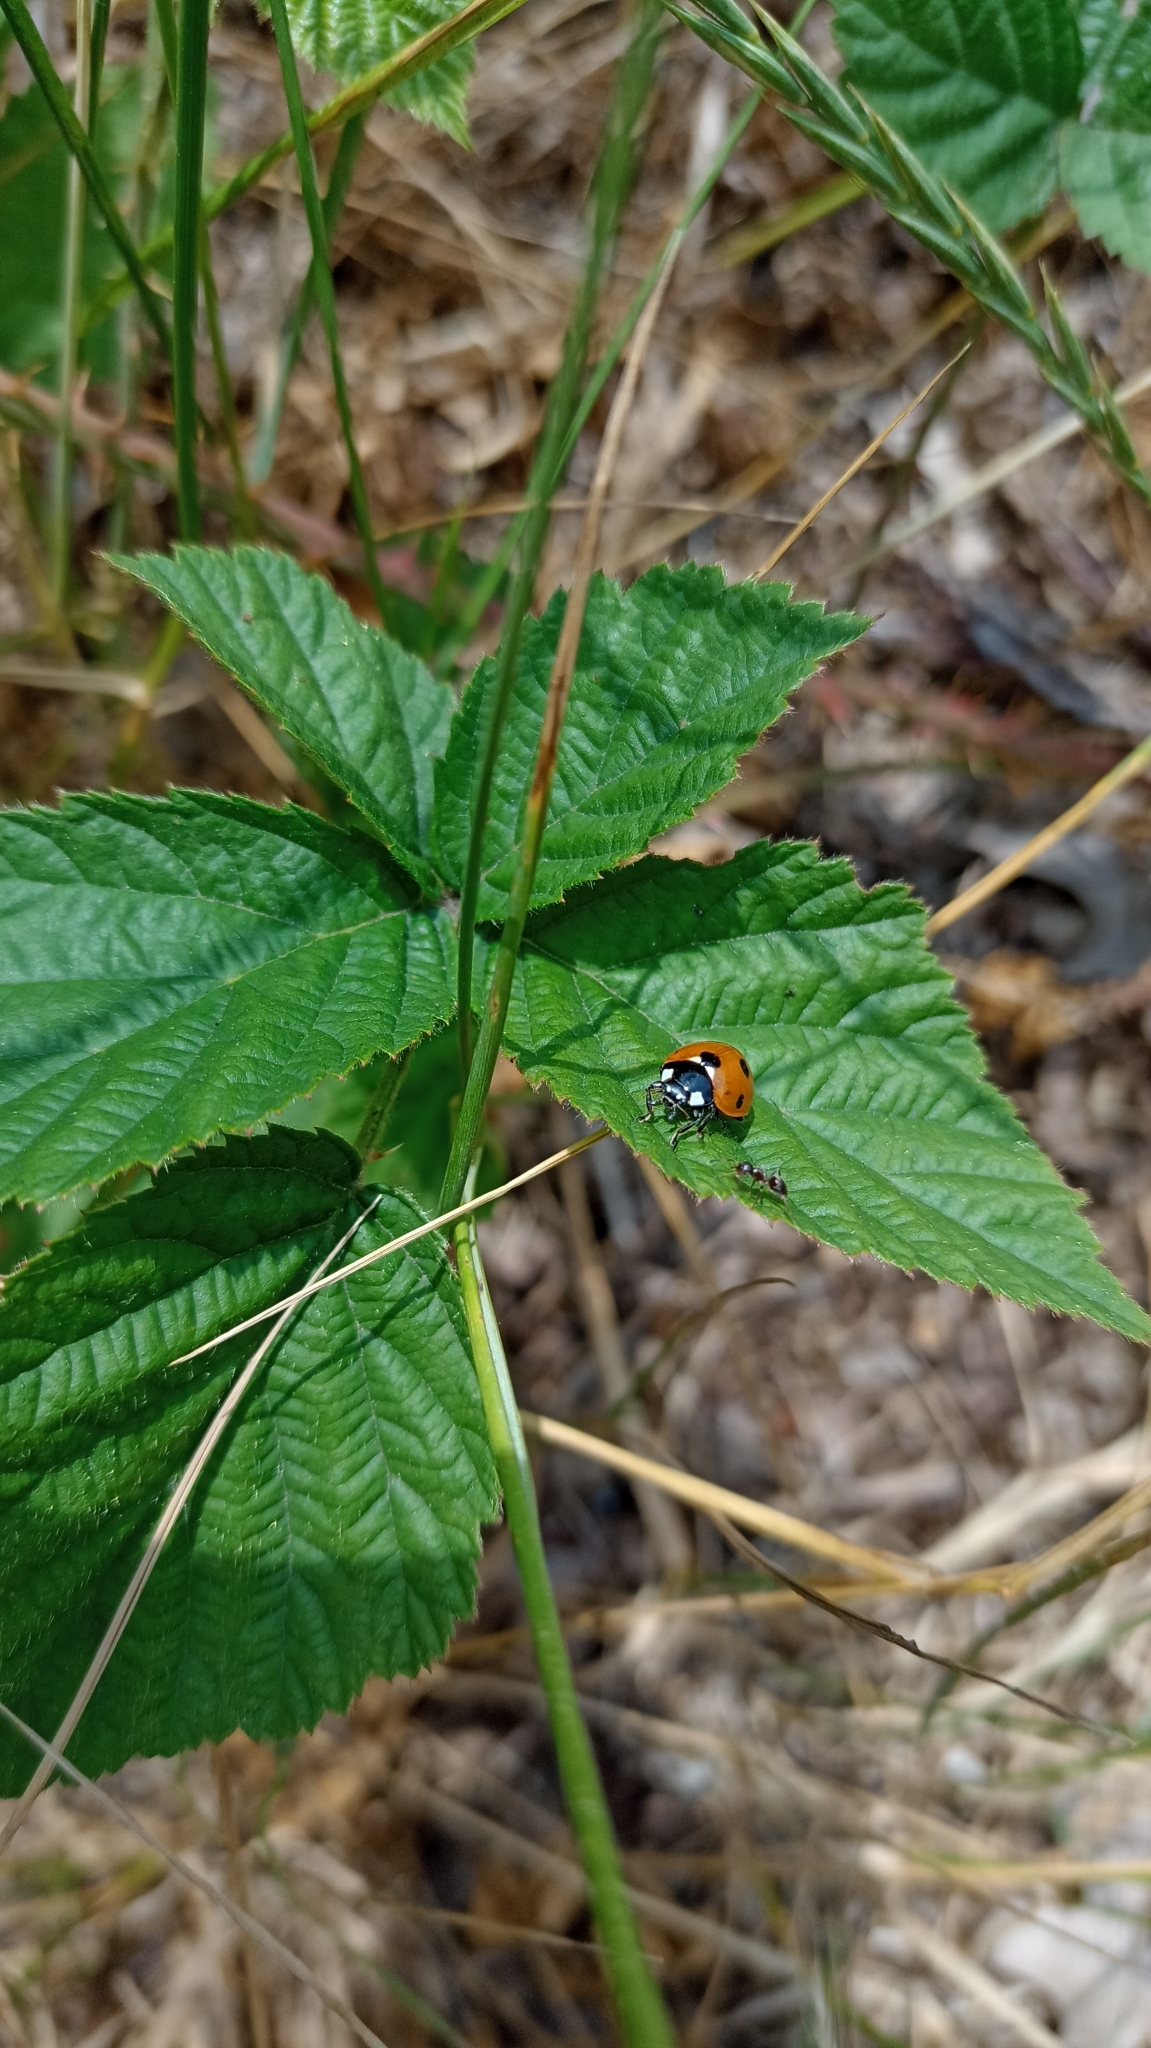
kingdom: Animalia
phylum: Arthropoda
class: Insecta
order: Coleoptera
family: Coccinellidae
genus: Coccinella
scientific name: Coccinella septempunctata
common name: Sevenspotted lady beetle
